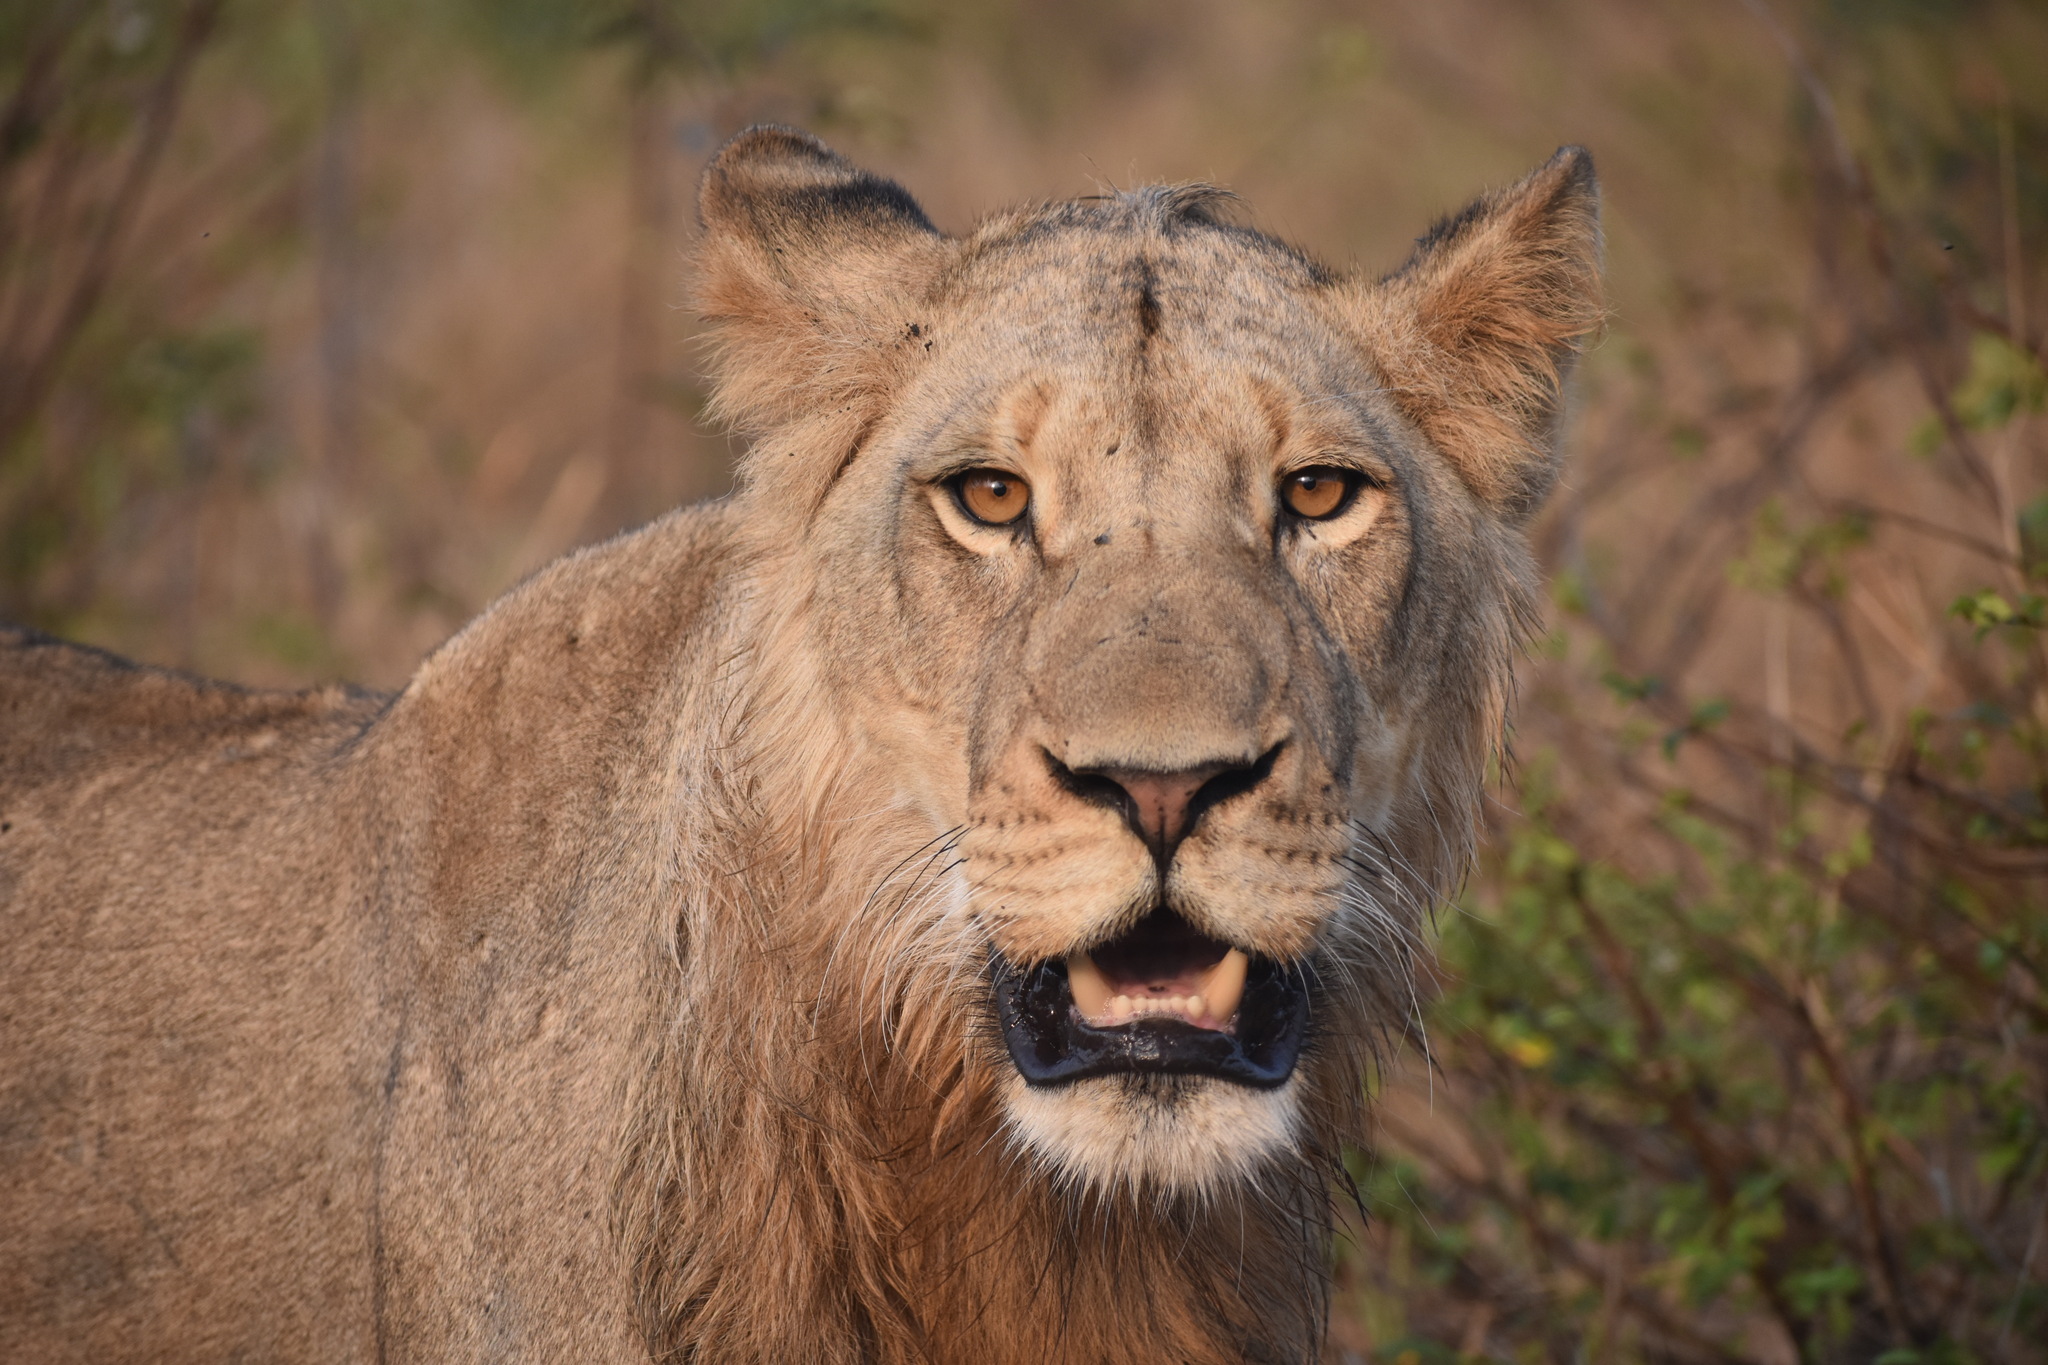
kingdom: Animalia
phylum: Chordata
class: Mammalia
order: Carnivora
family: Felidae
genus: Panthera
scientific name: Panthera leo
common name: Lion
